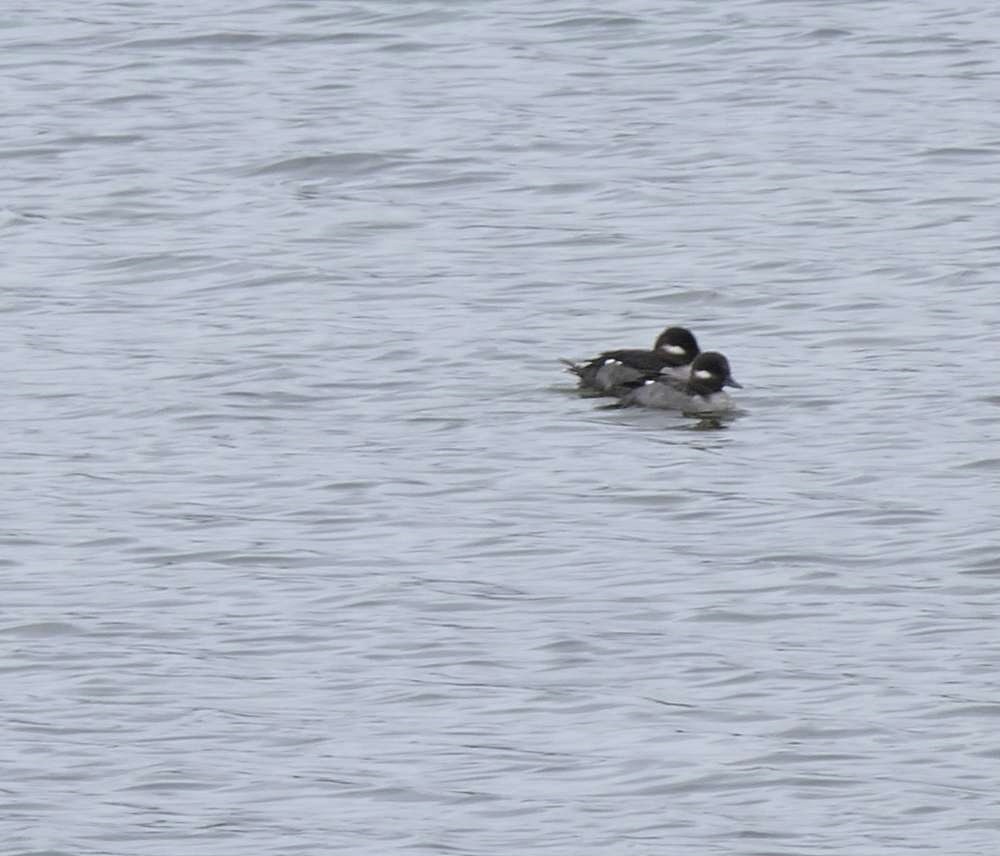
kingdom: Animalia
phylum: Chordata
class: Aves
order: Anseriformes
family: Anatidae
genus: Bucephala
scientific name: Bucephala albeola
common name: Bufflehead
